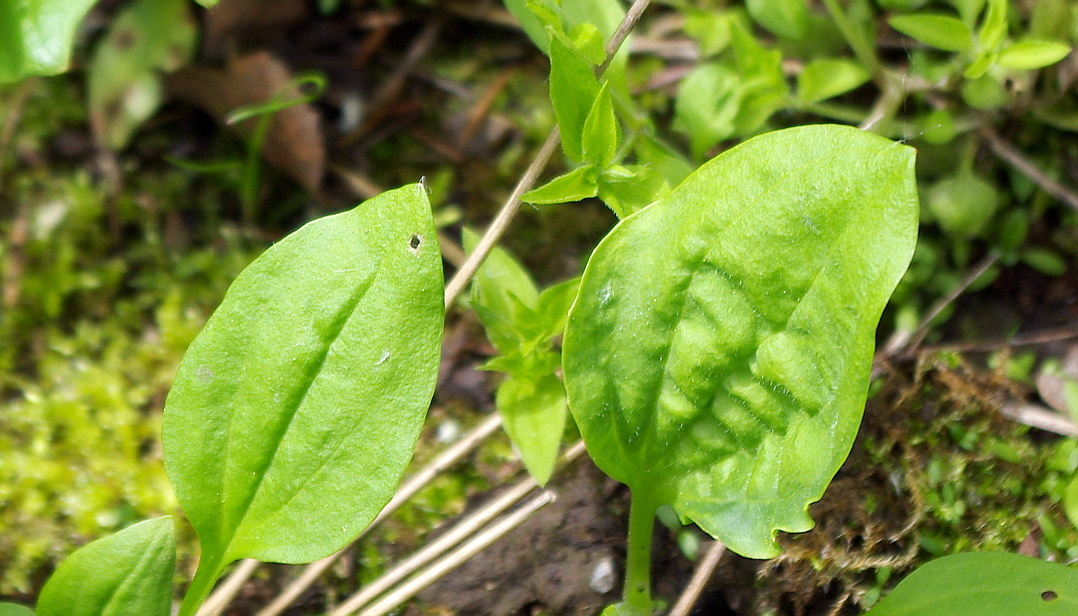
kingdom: Plantae
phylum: Tracheophyta
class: Magnoliopsida
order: Lamiales
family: Plantaginaceae
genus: Plantago
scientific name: Plantago major
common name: Common plantain
